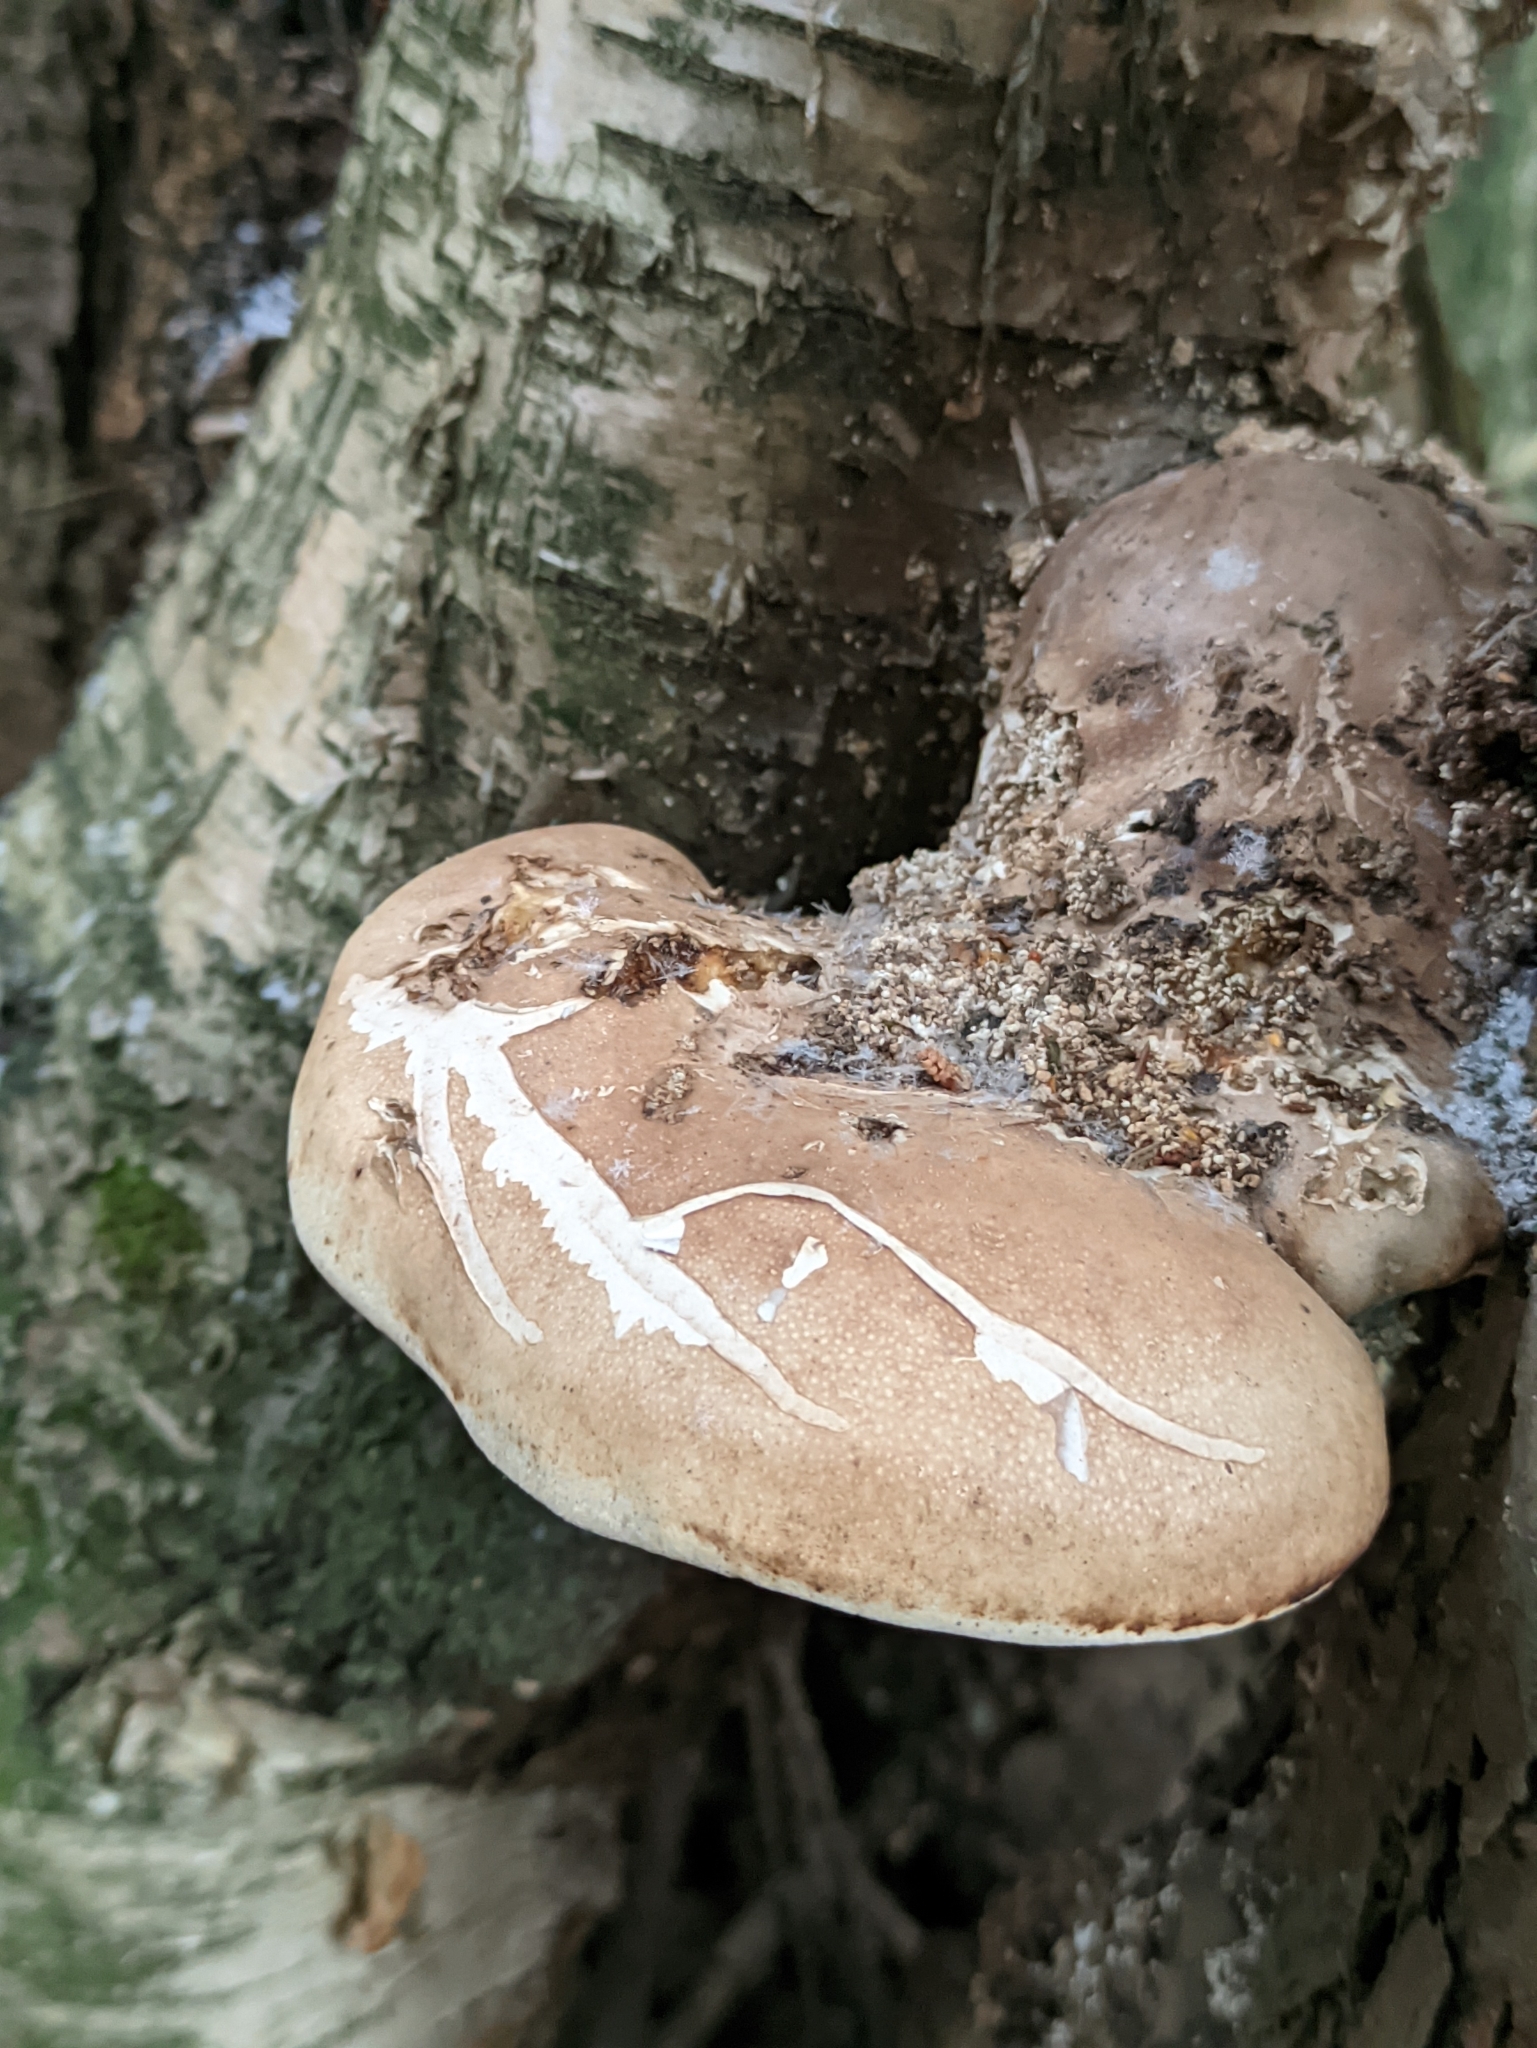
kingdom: Fungi
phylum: Basidiomycota
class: Agaricomycetes
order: Polyporales
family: Fomitopsidaceae
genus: Fomitopsis
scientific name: Fomitopsis betulina
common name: Birch polypore
